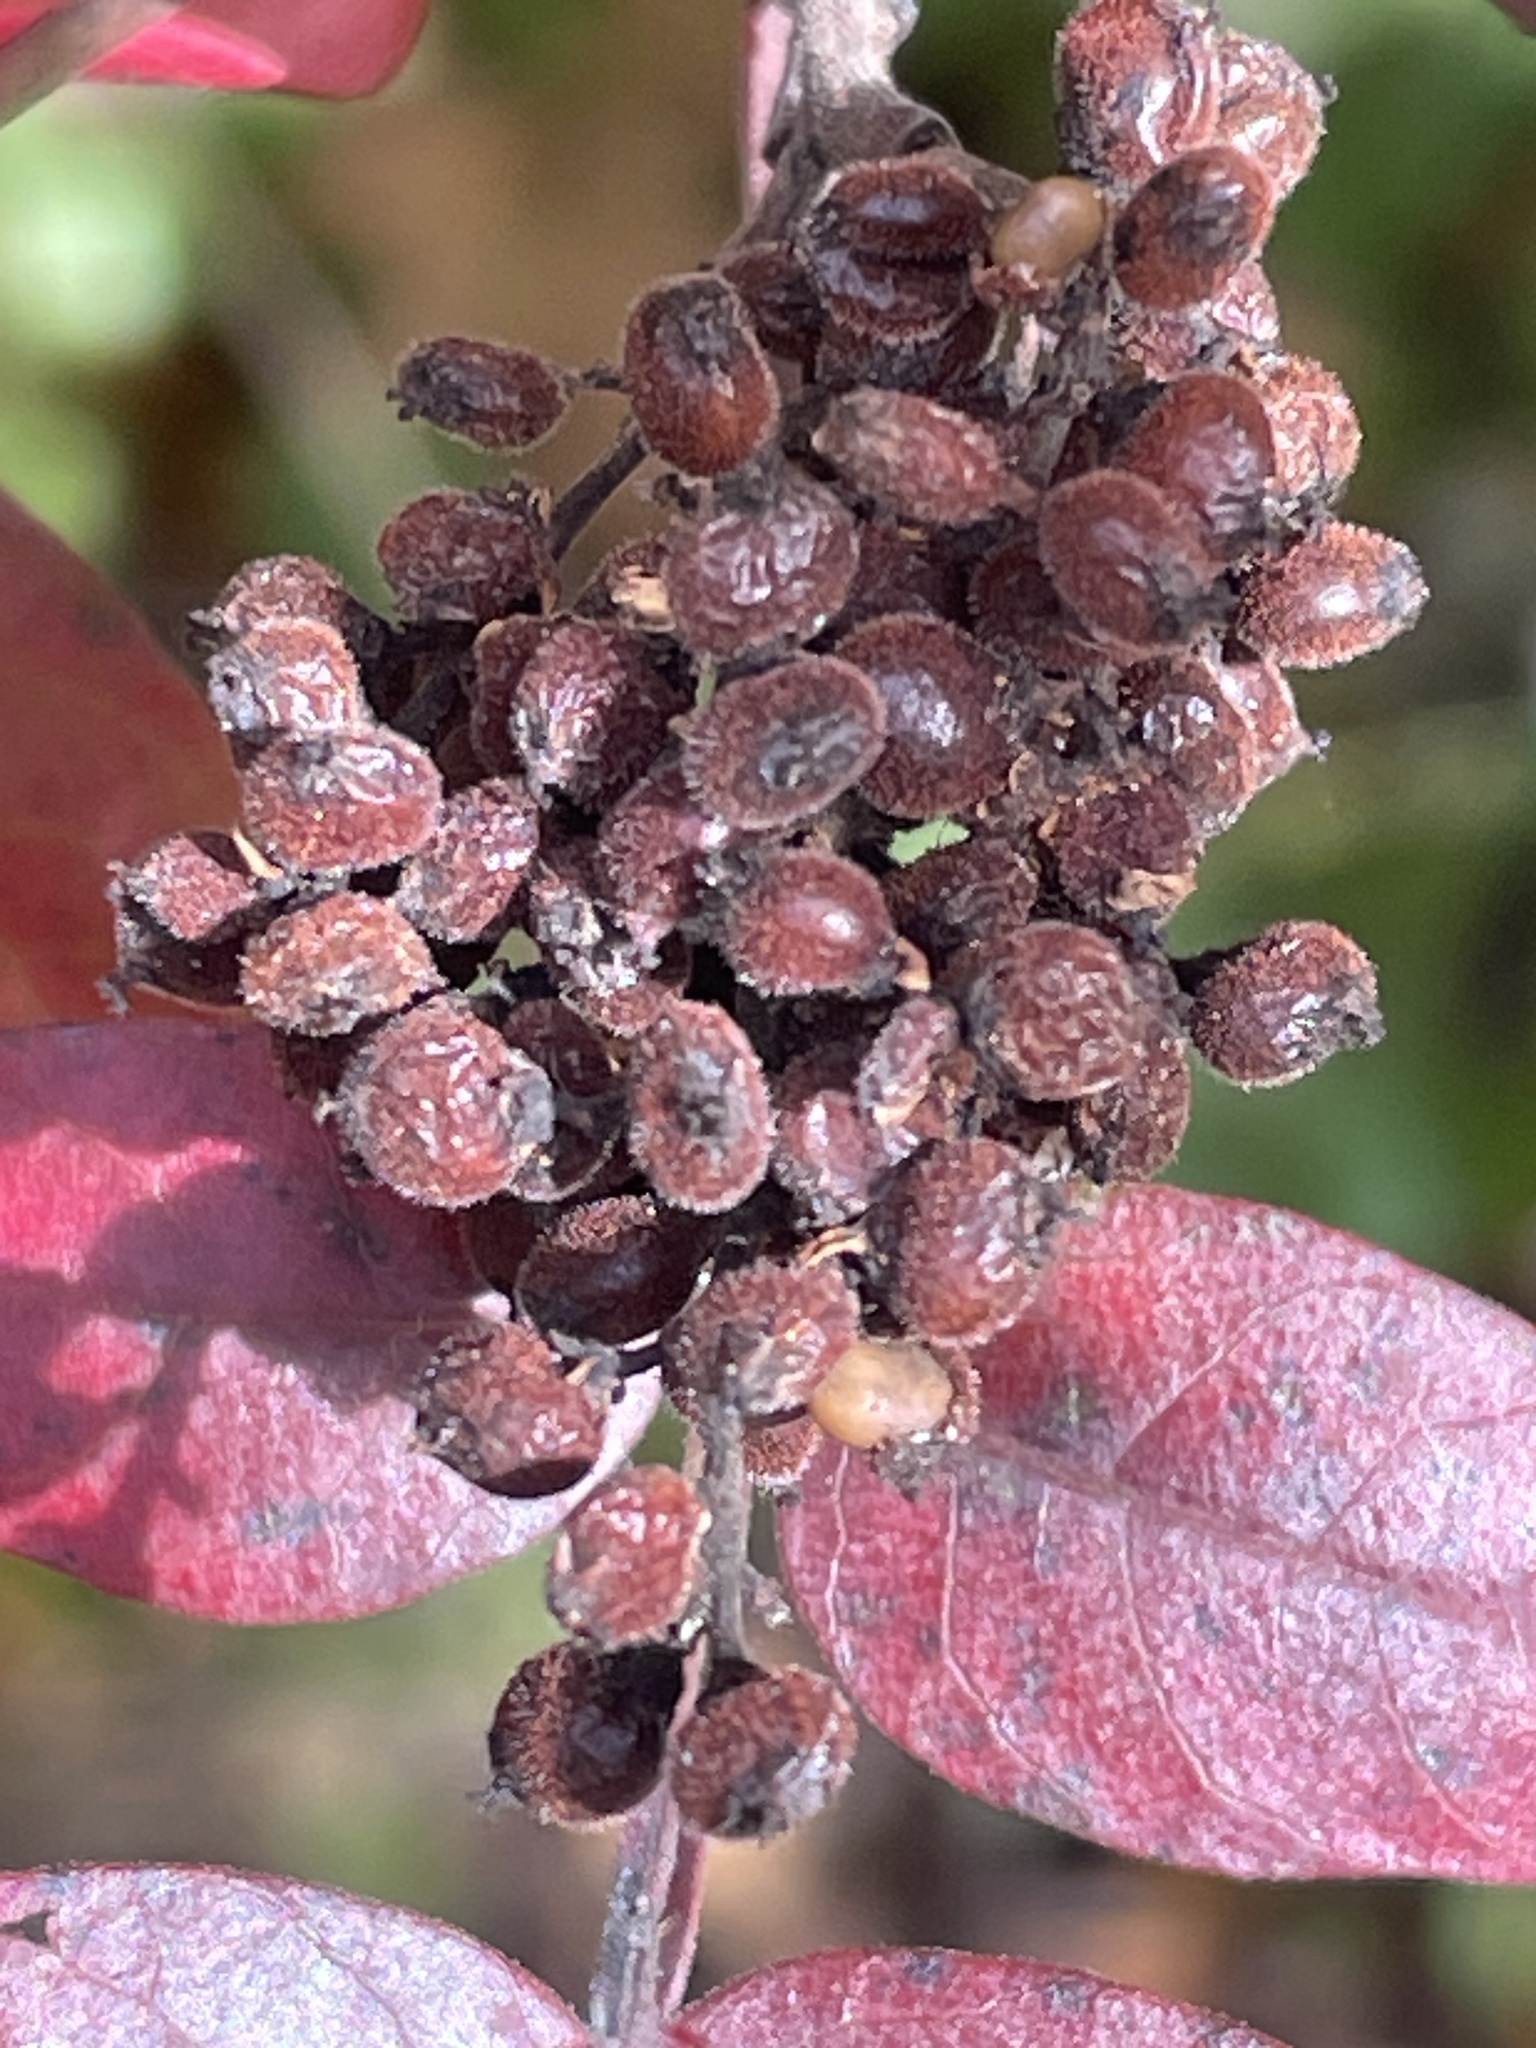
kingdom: Plantae
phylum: Tracheophyta
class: Magnoliopsida
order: Sapindales
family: Anacardiaceae
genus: Rhus
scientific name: Rhus copallina
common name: Shining sumac
